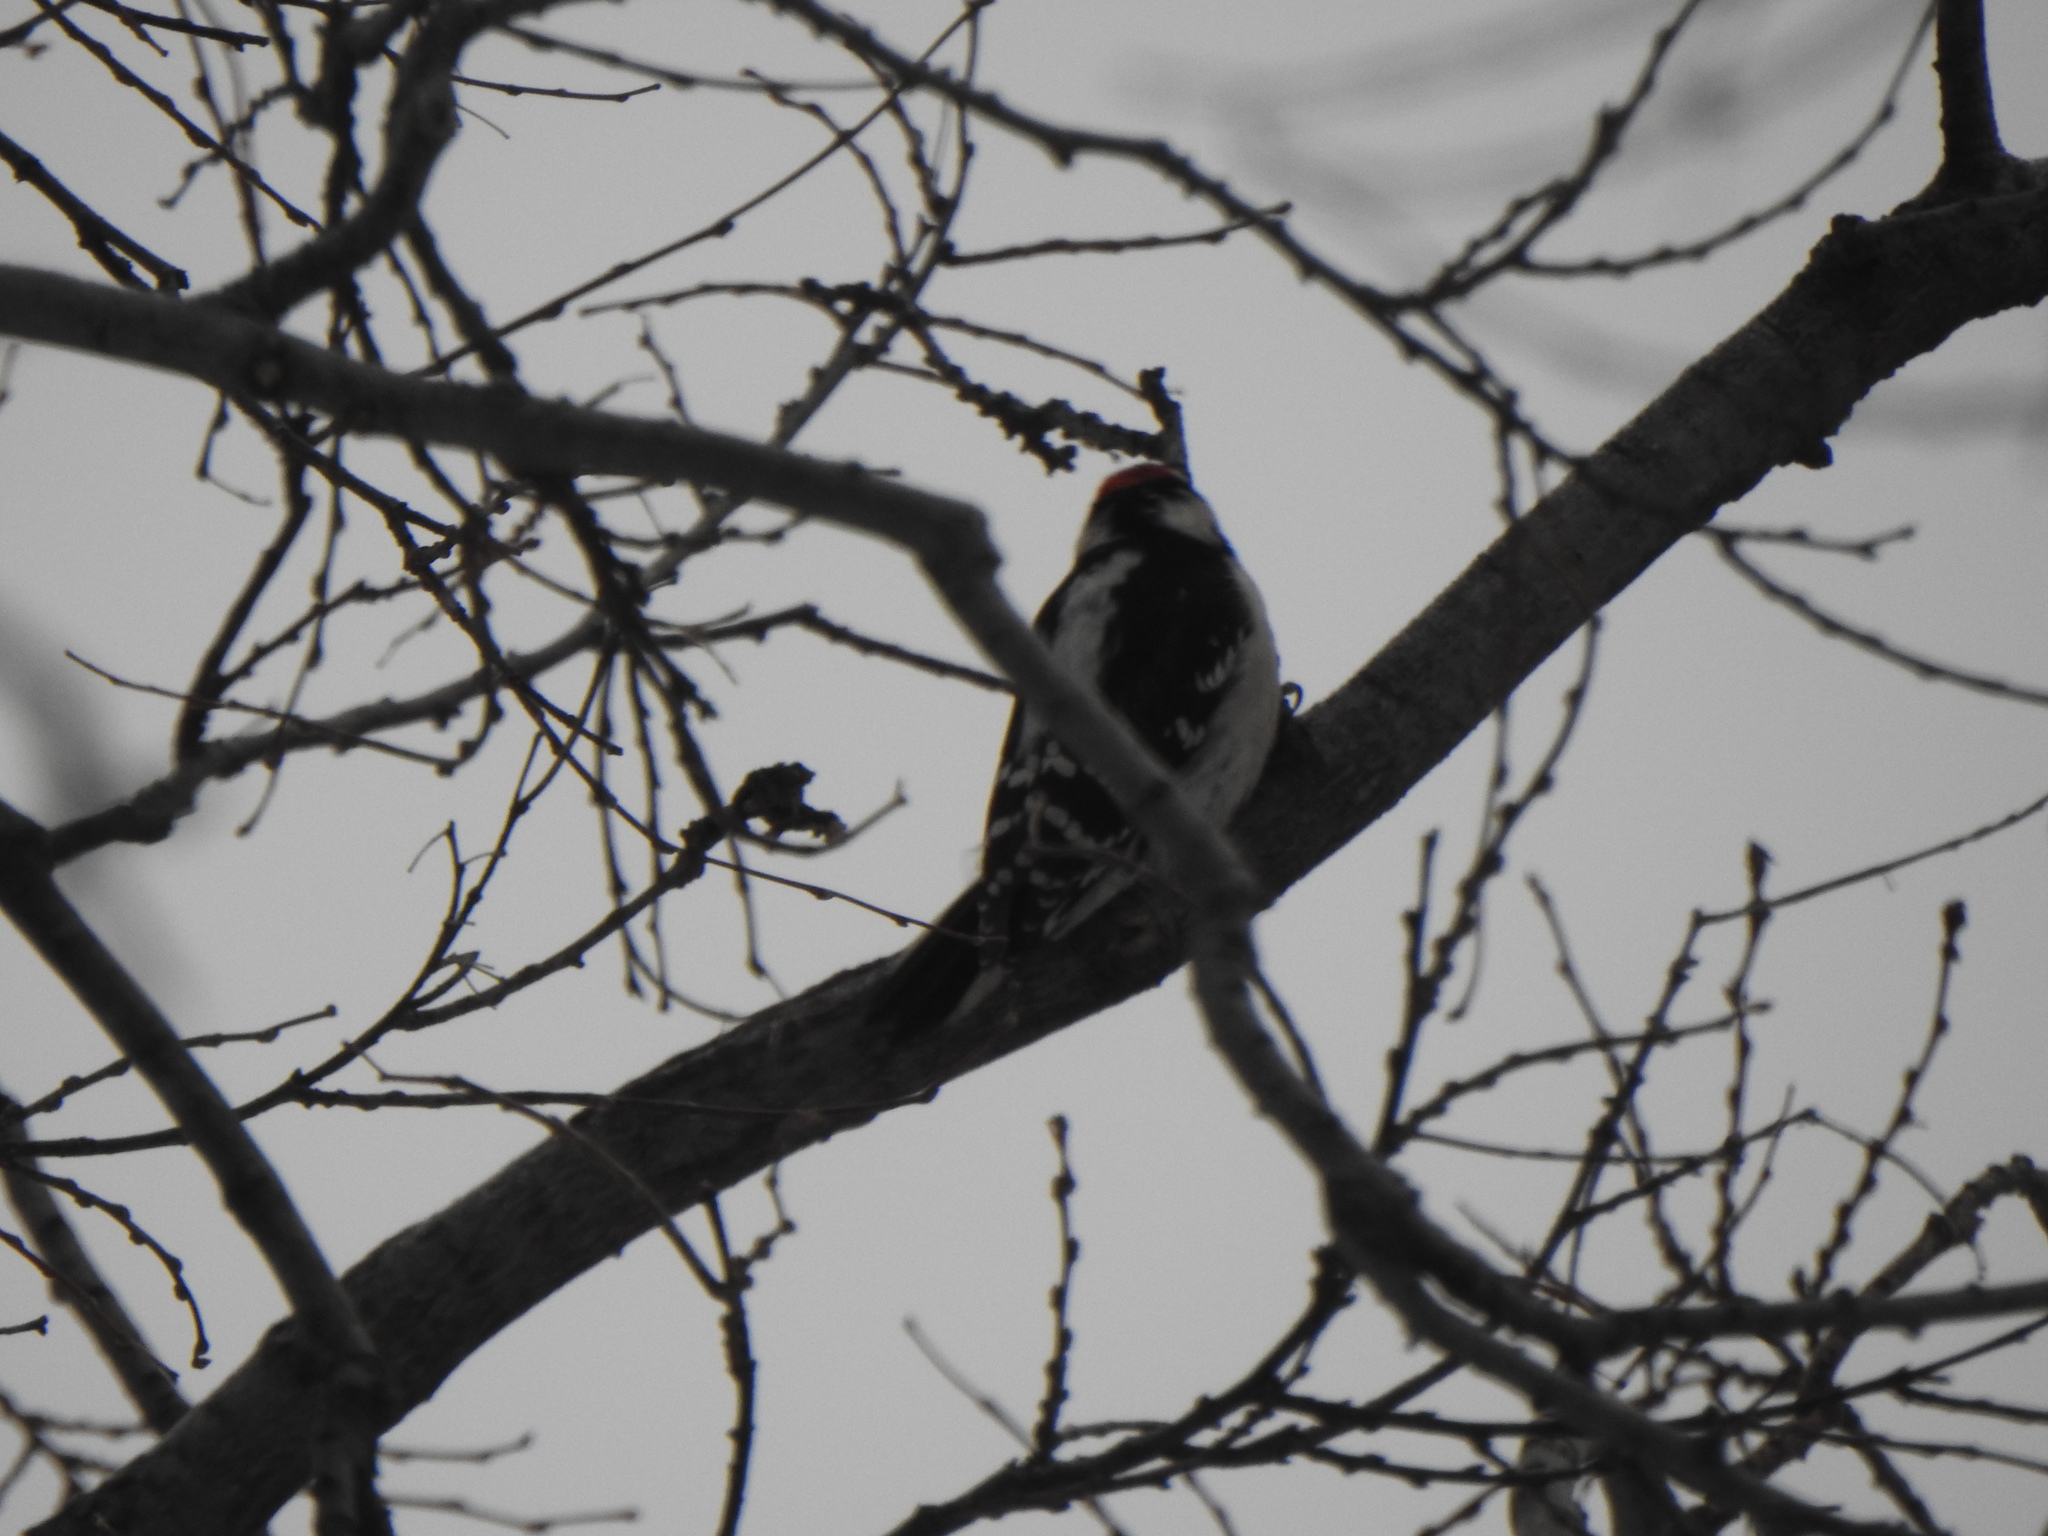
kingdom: Animalia
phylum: Chordata
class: Aves
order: Piciformes
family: Picidae
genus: Dryobates
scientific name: Dryobates pubescens
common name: Downy woodpecker
